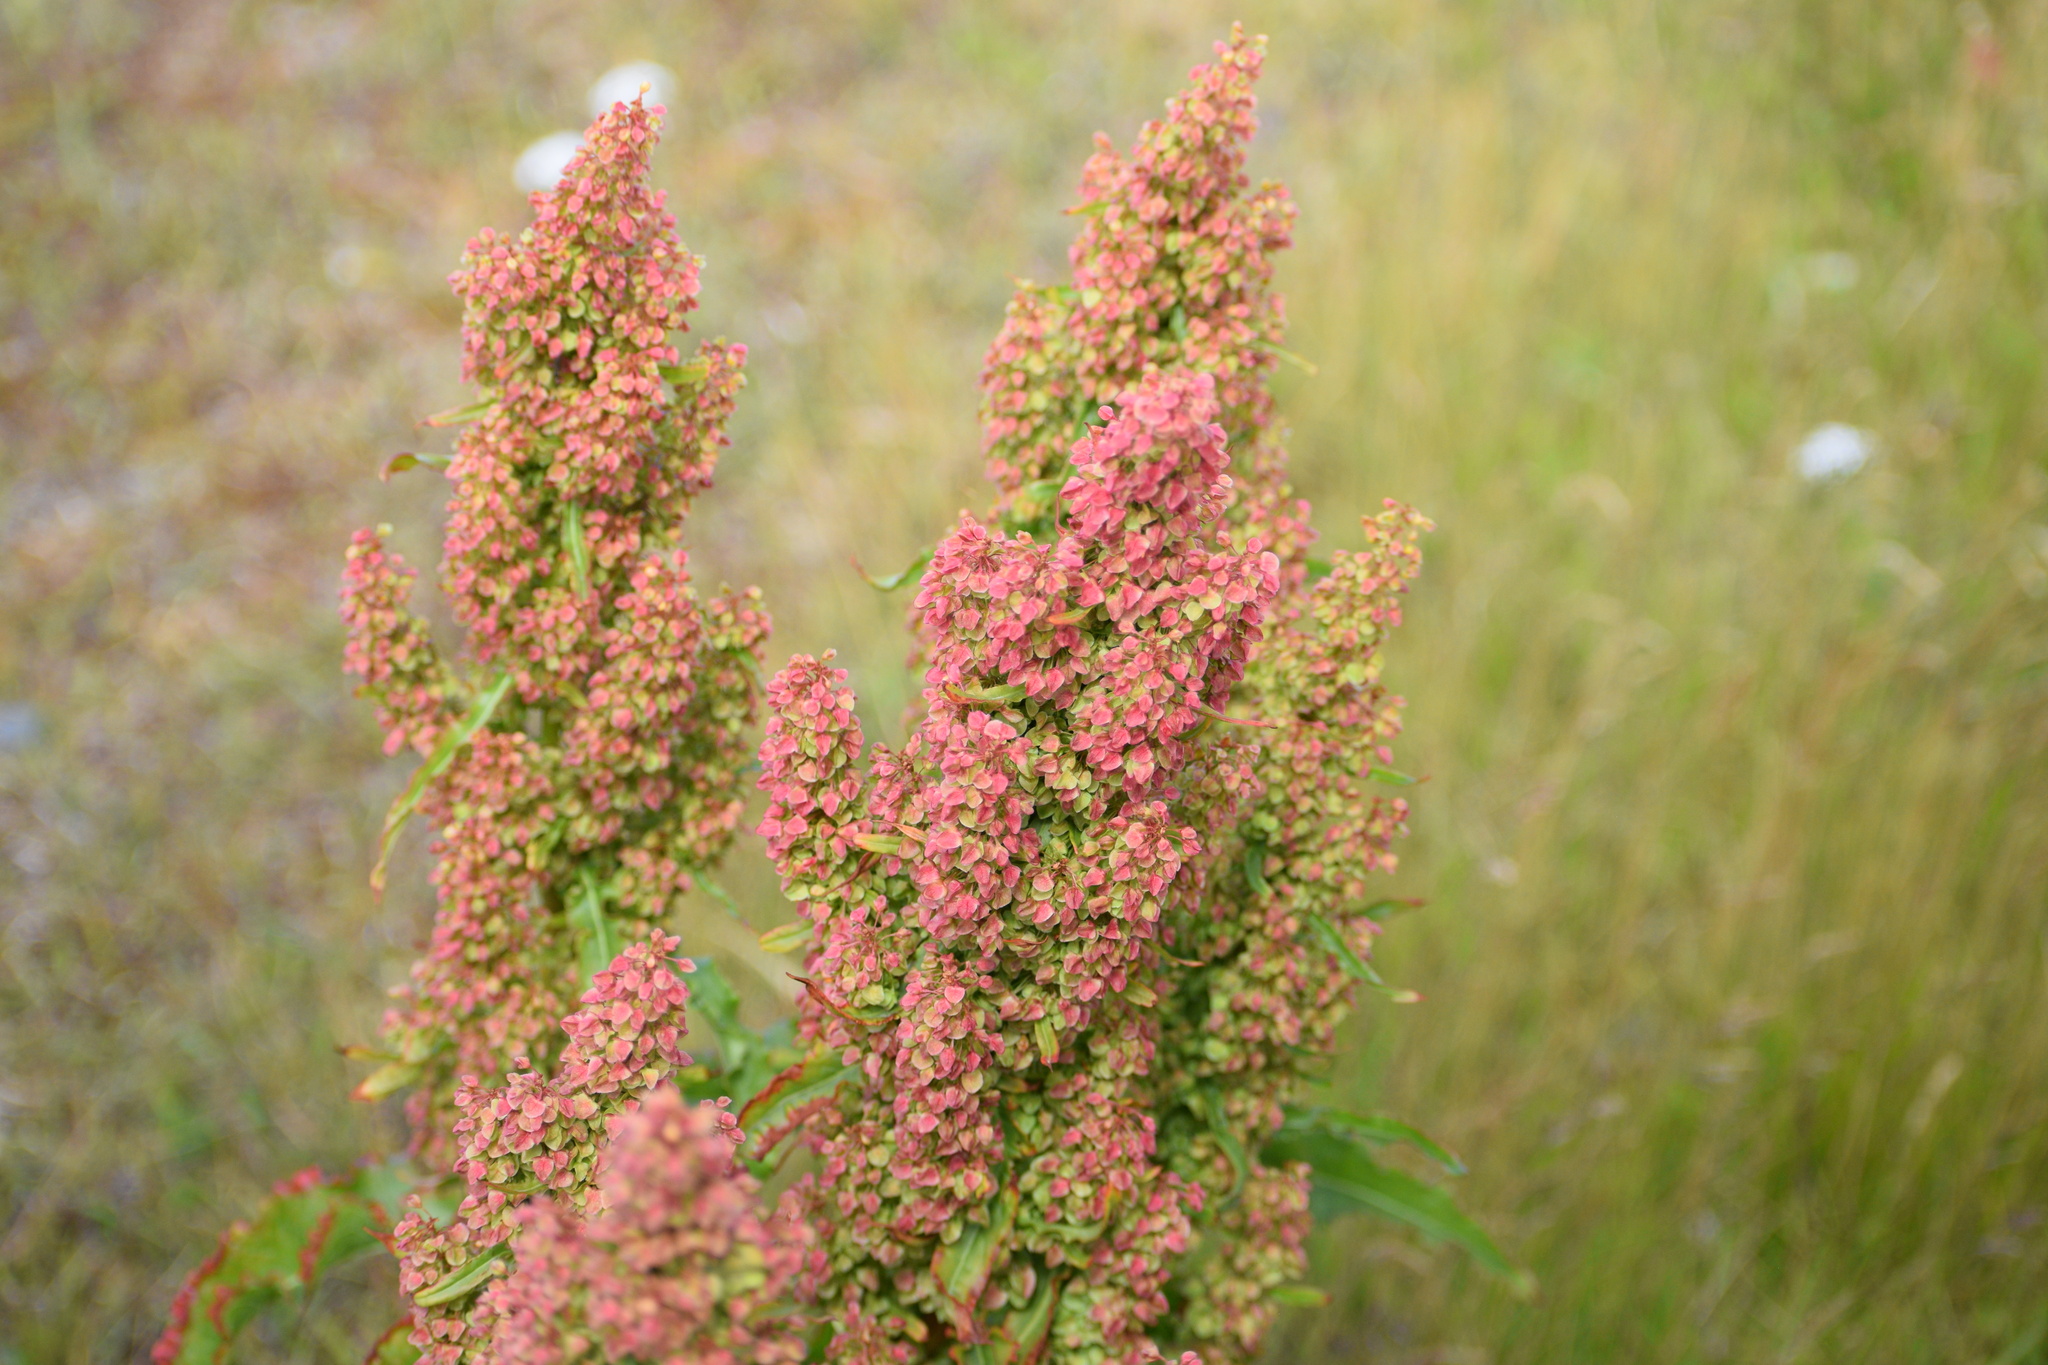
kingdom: Plantae
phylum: Tracheophyta
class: Magnoliopsida
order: Caryophyllales
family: Polygonaceae
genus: Rumex
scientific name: Rumex crispus
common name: Curled dock
